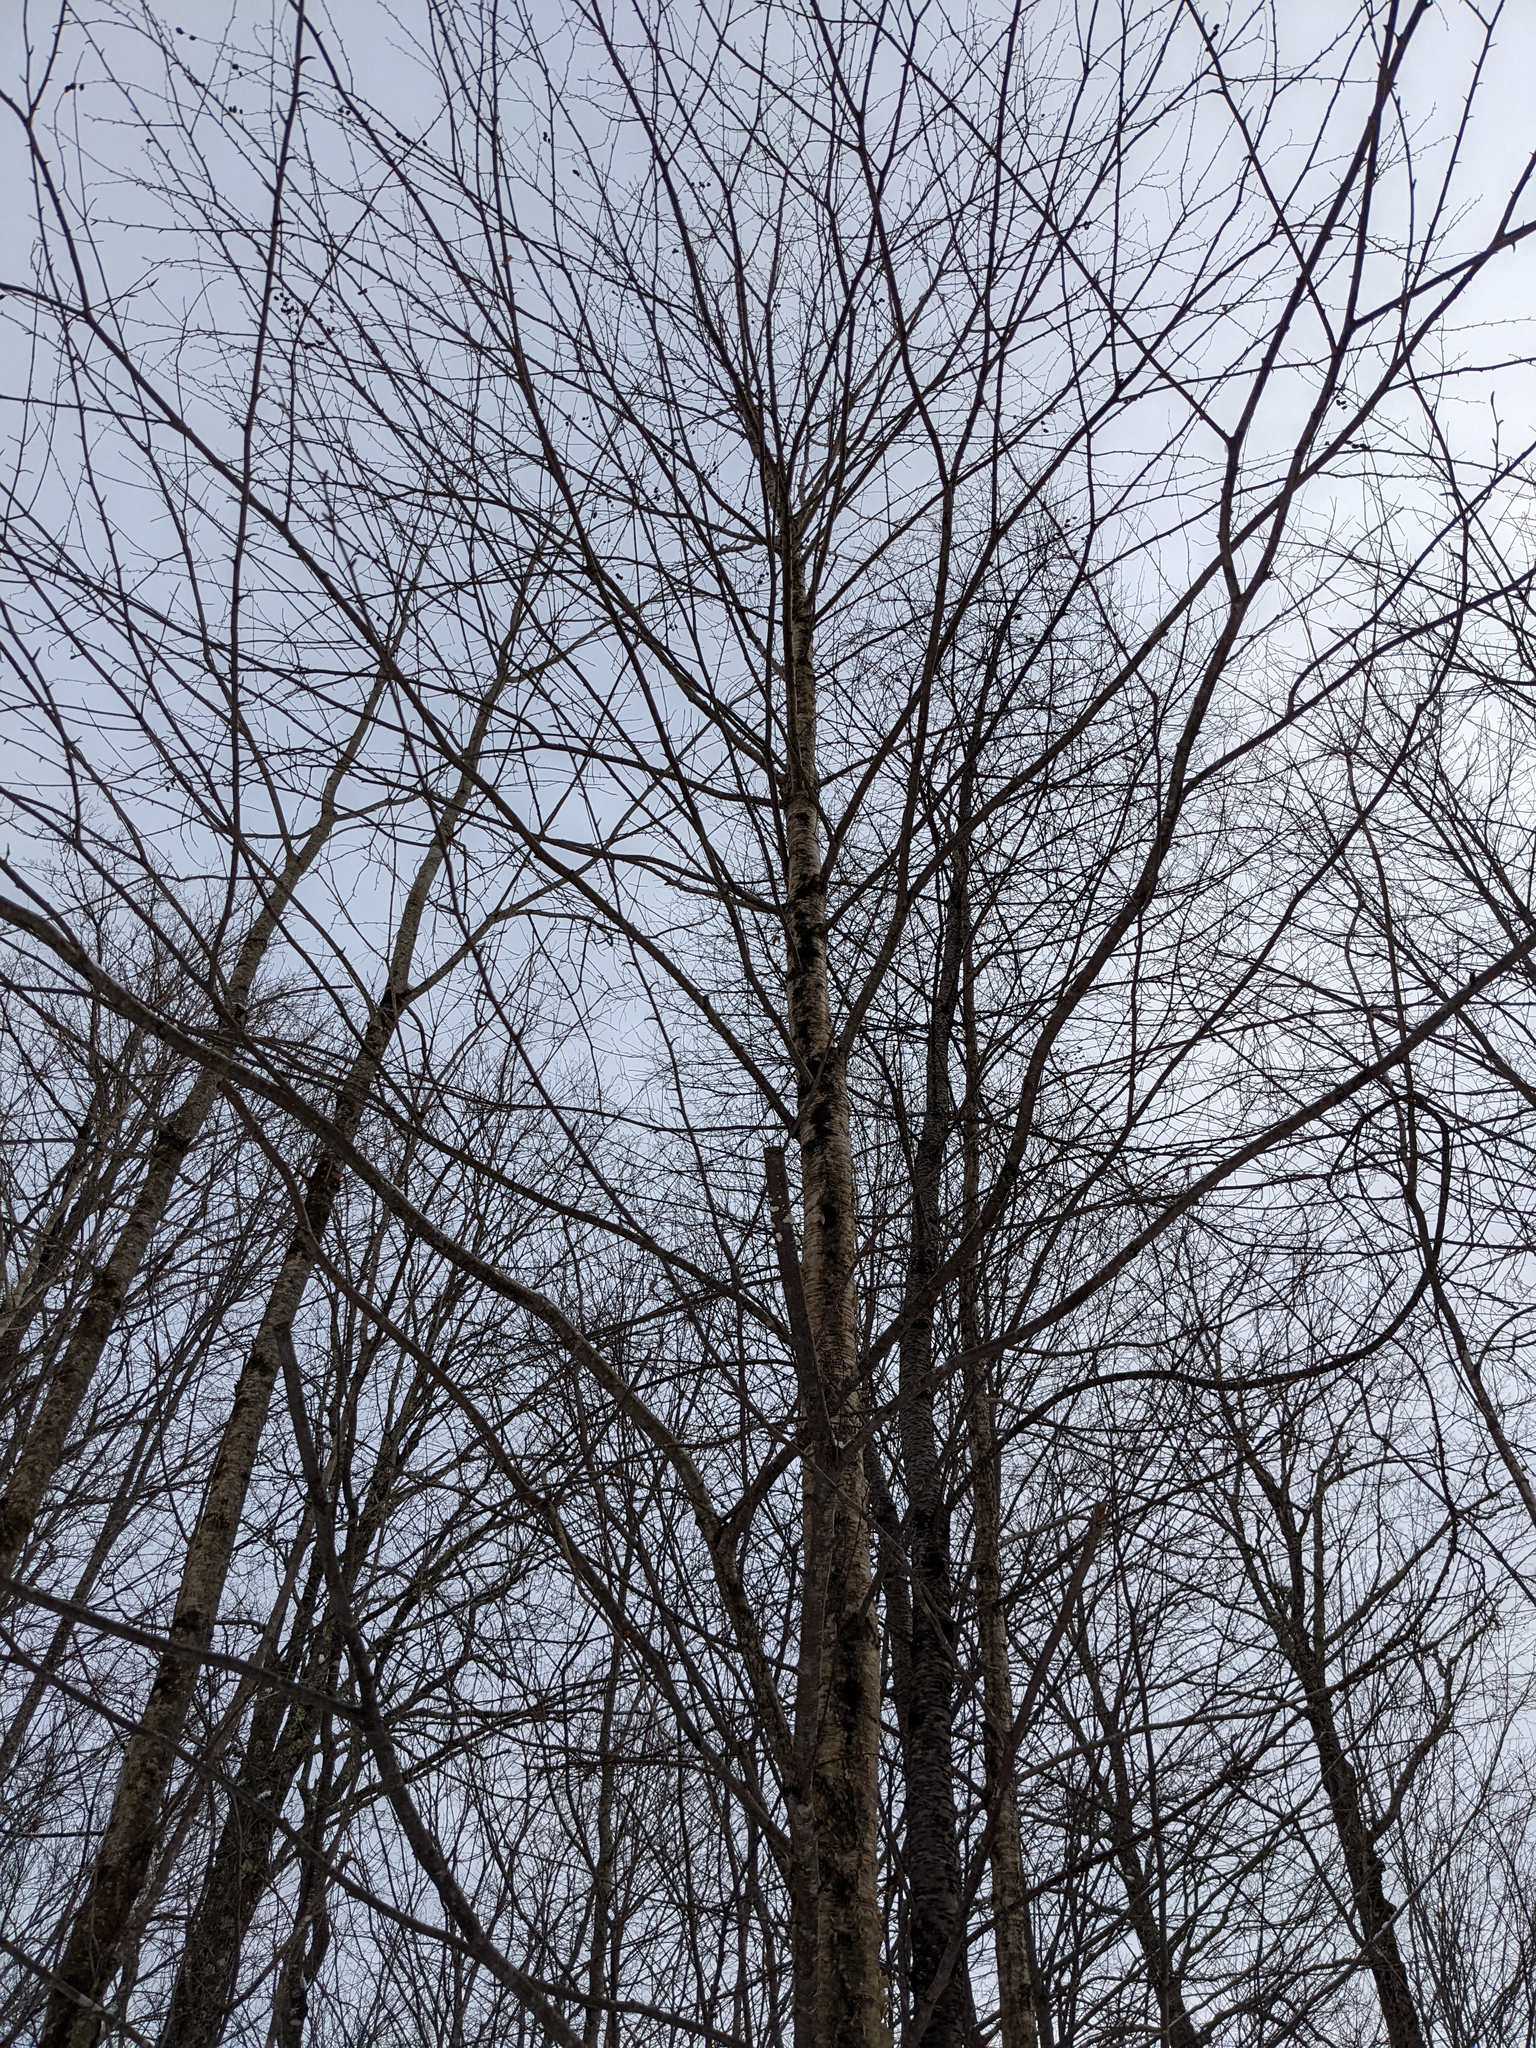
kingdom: Plantae
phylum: Tracheophyta
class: Magnoliopsida
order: Fagales
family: Betulaceae
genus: Betula
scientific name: Betula alleghaniensis
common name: Yellow birch
